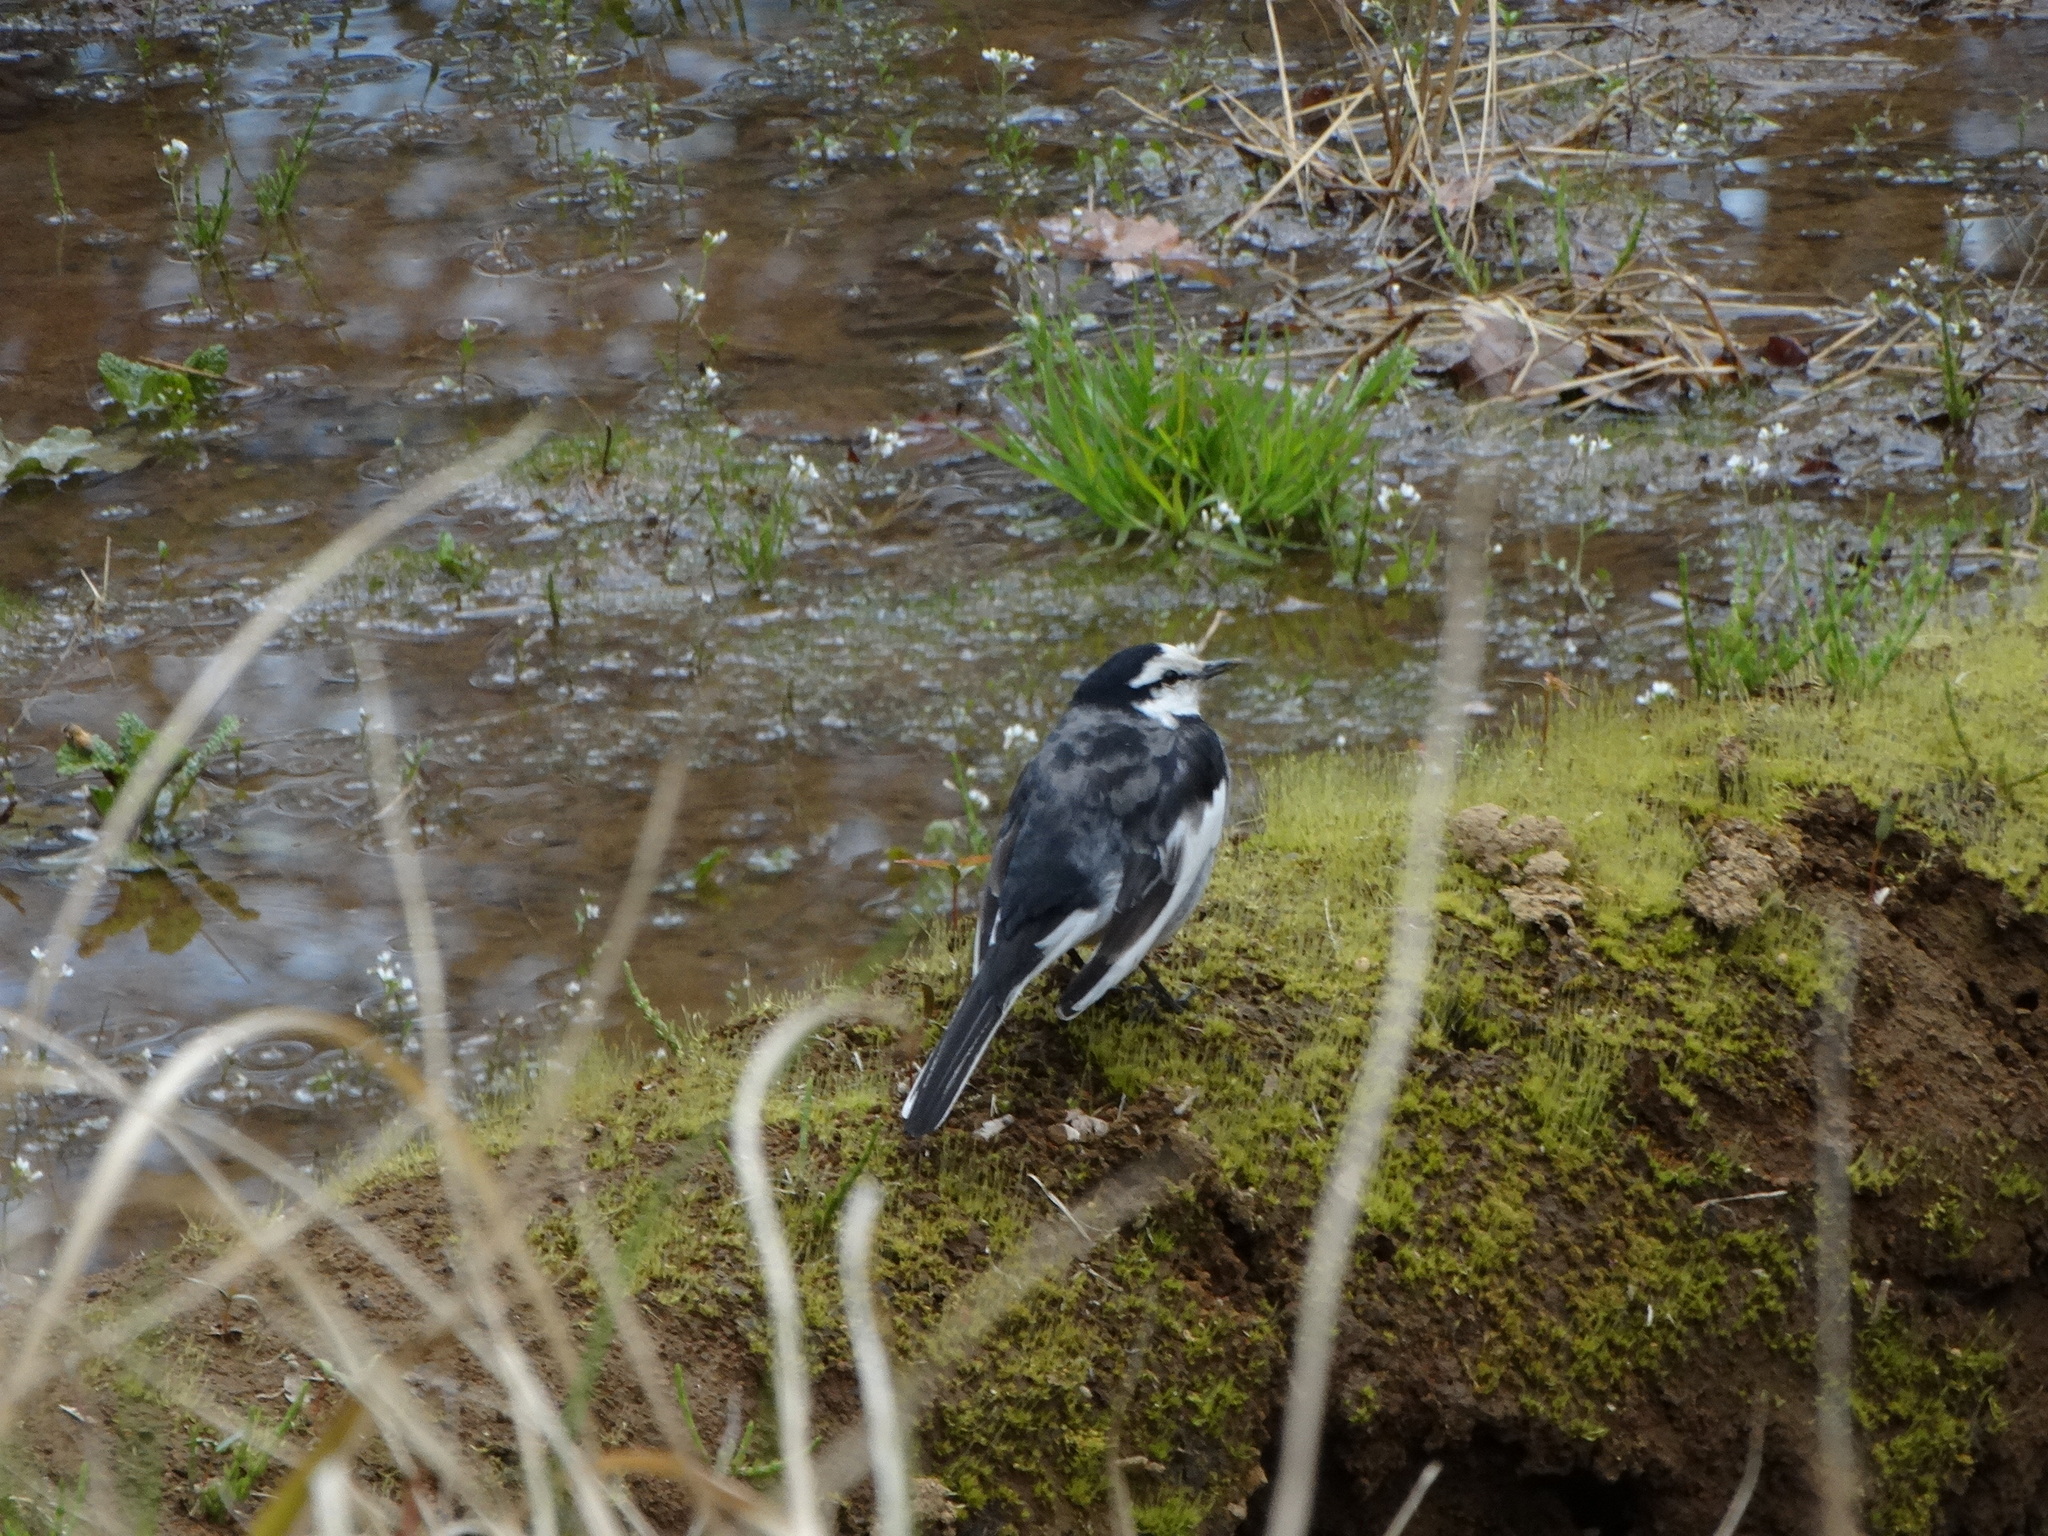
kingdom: Animalia
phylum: Chordata
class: Aves
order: Passeriformes
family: Motacillidae
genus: Motacilla
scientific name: Motacilla alba
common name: White wagtail
